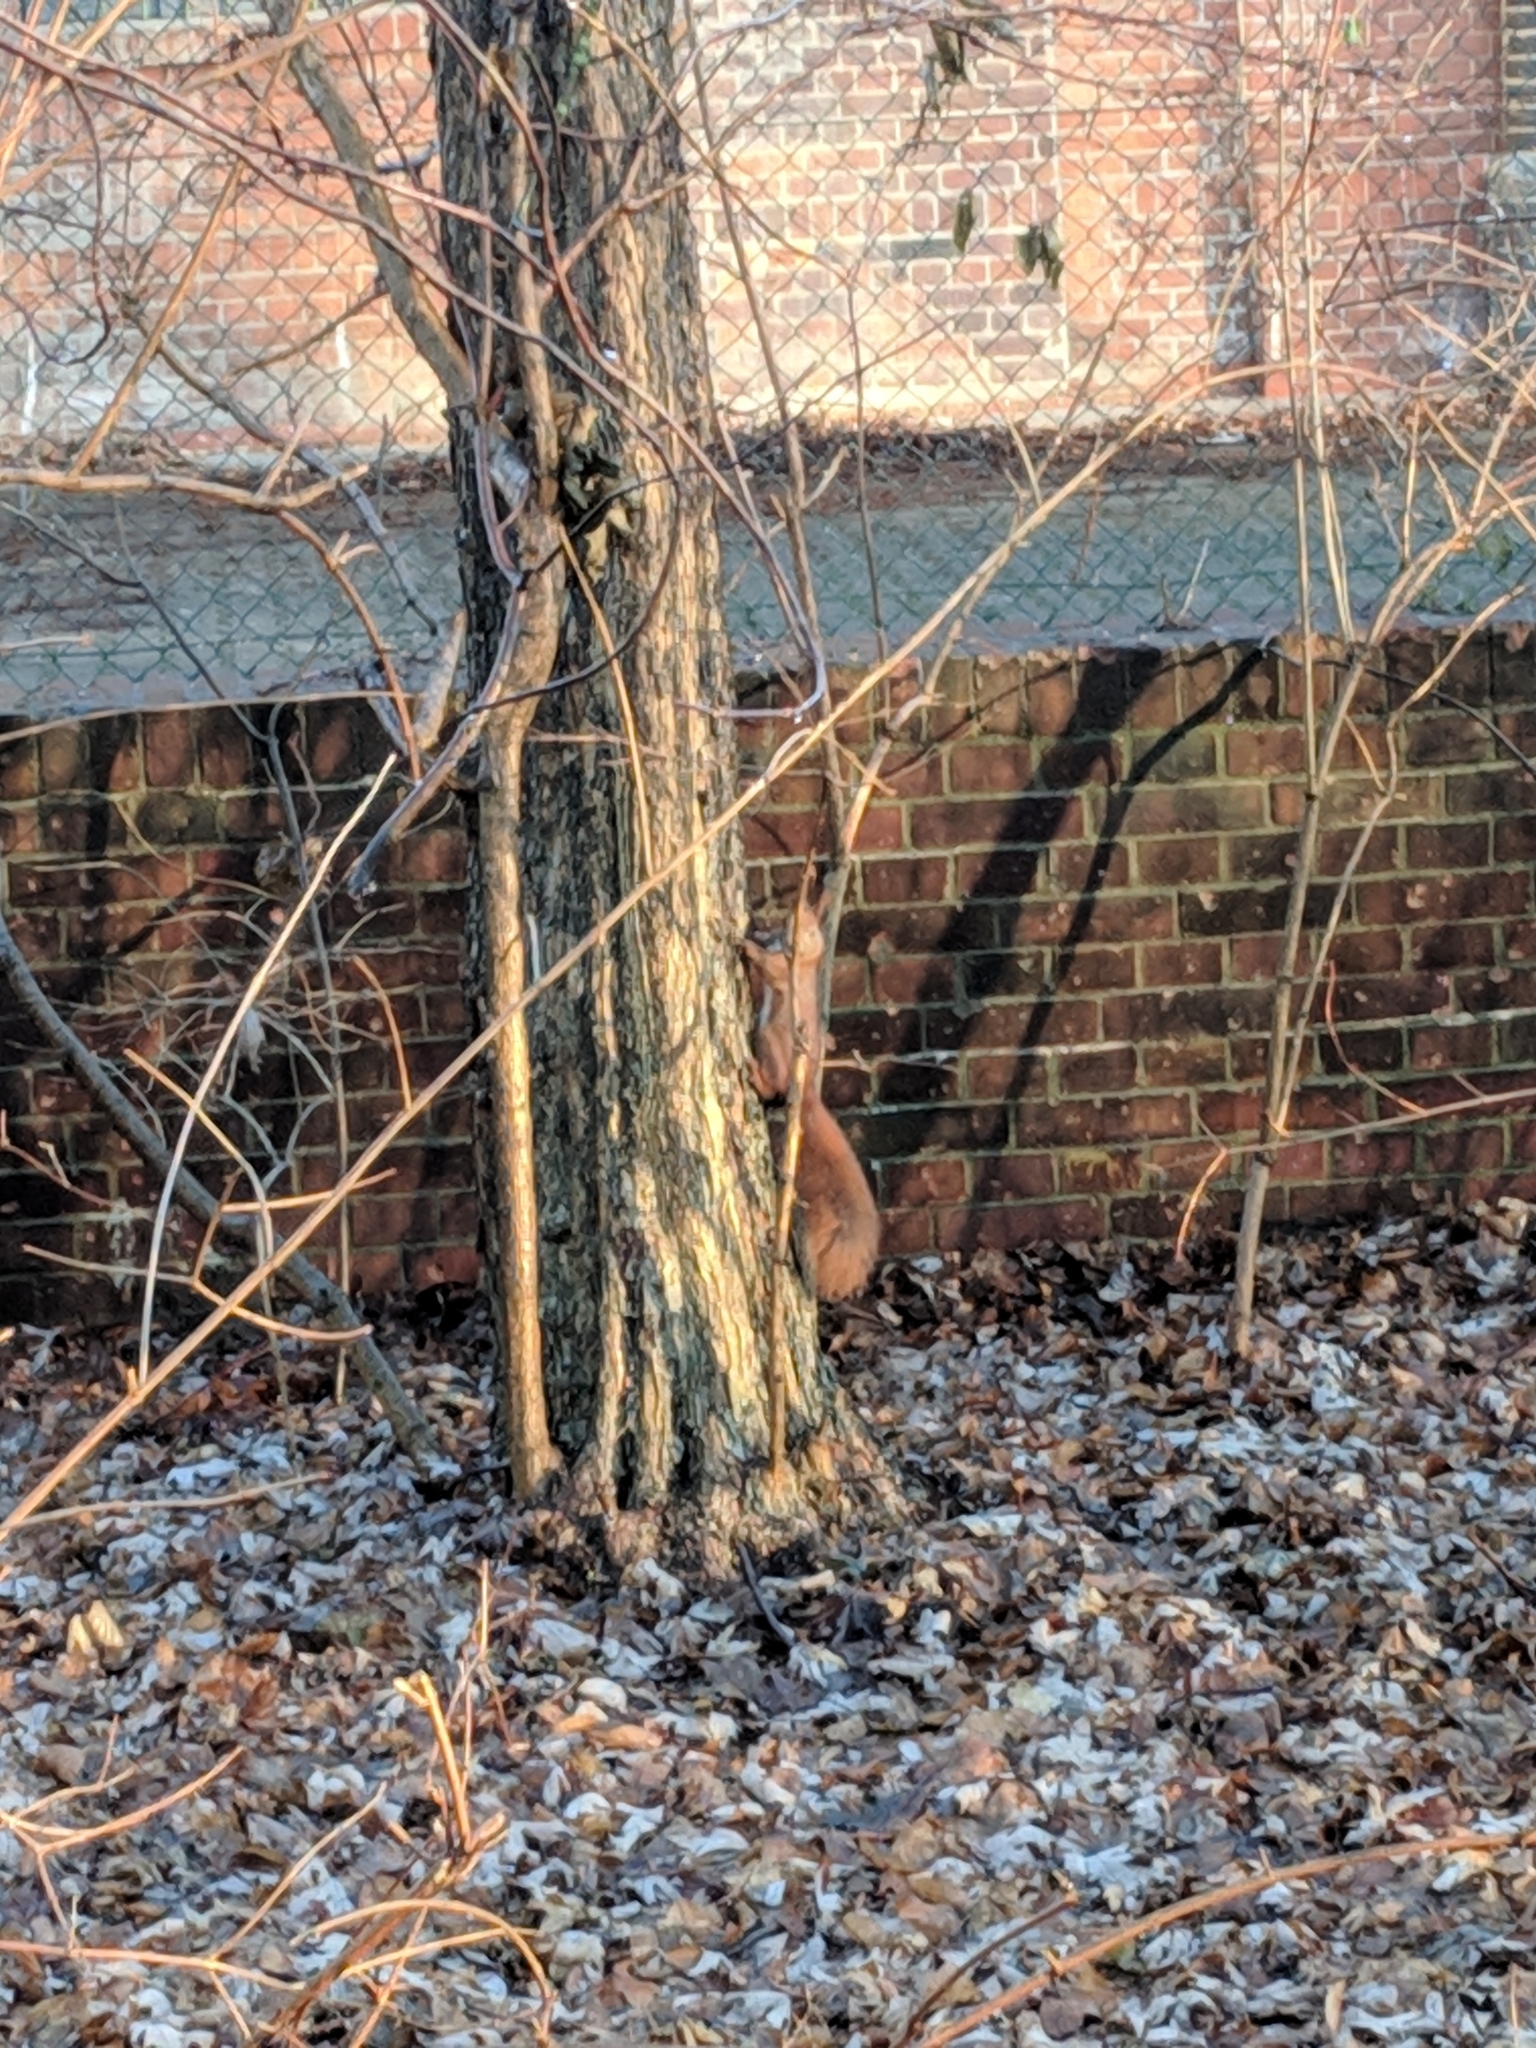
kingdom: Animalia
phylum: Chordata
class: Mammalia
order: Rodentia
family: Sciuridae
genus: Sciurus
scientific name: Sciurus vulgaris
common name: Eurasian red squirrel
